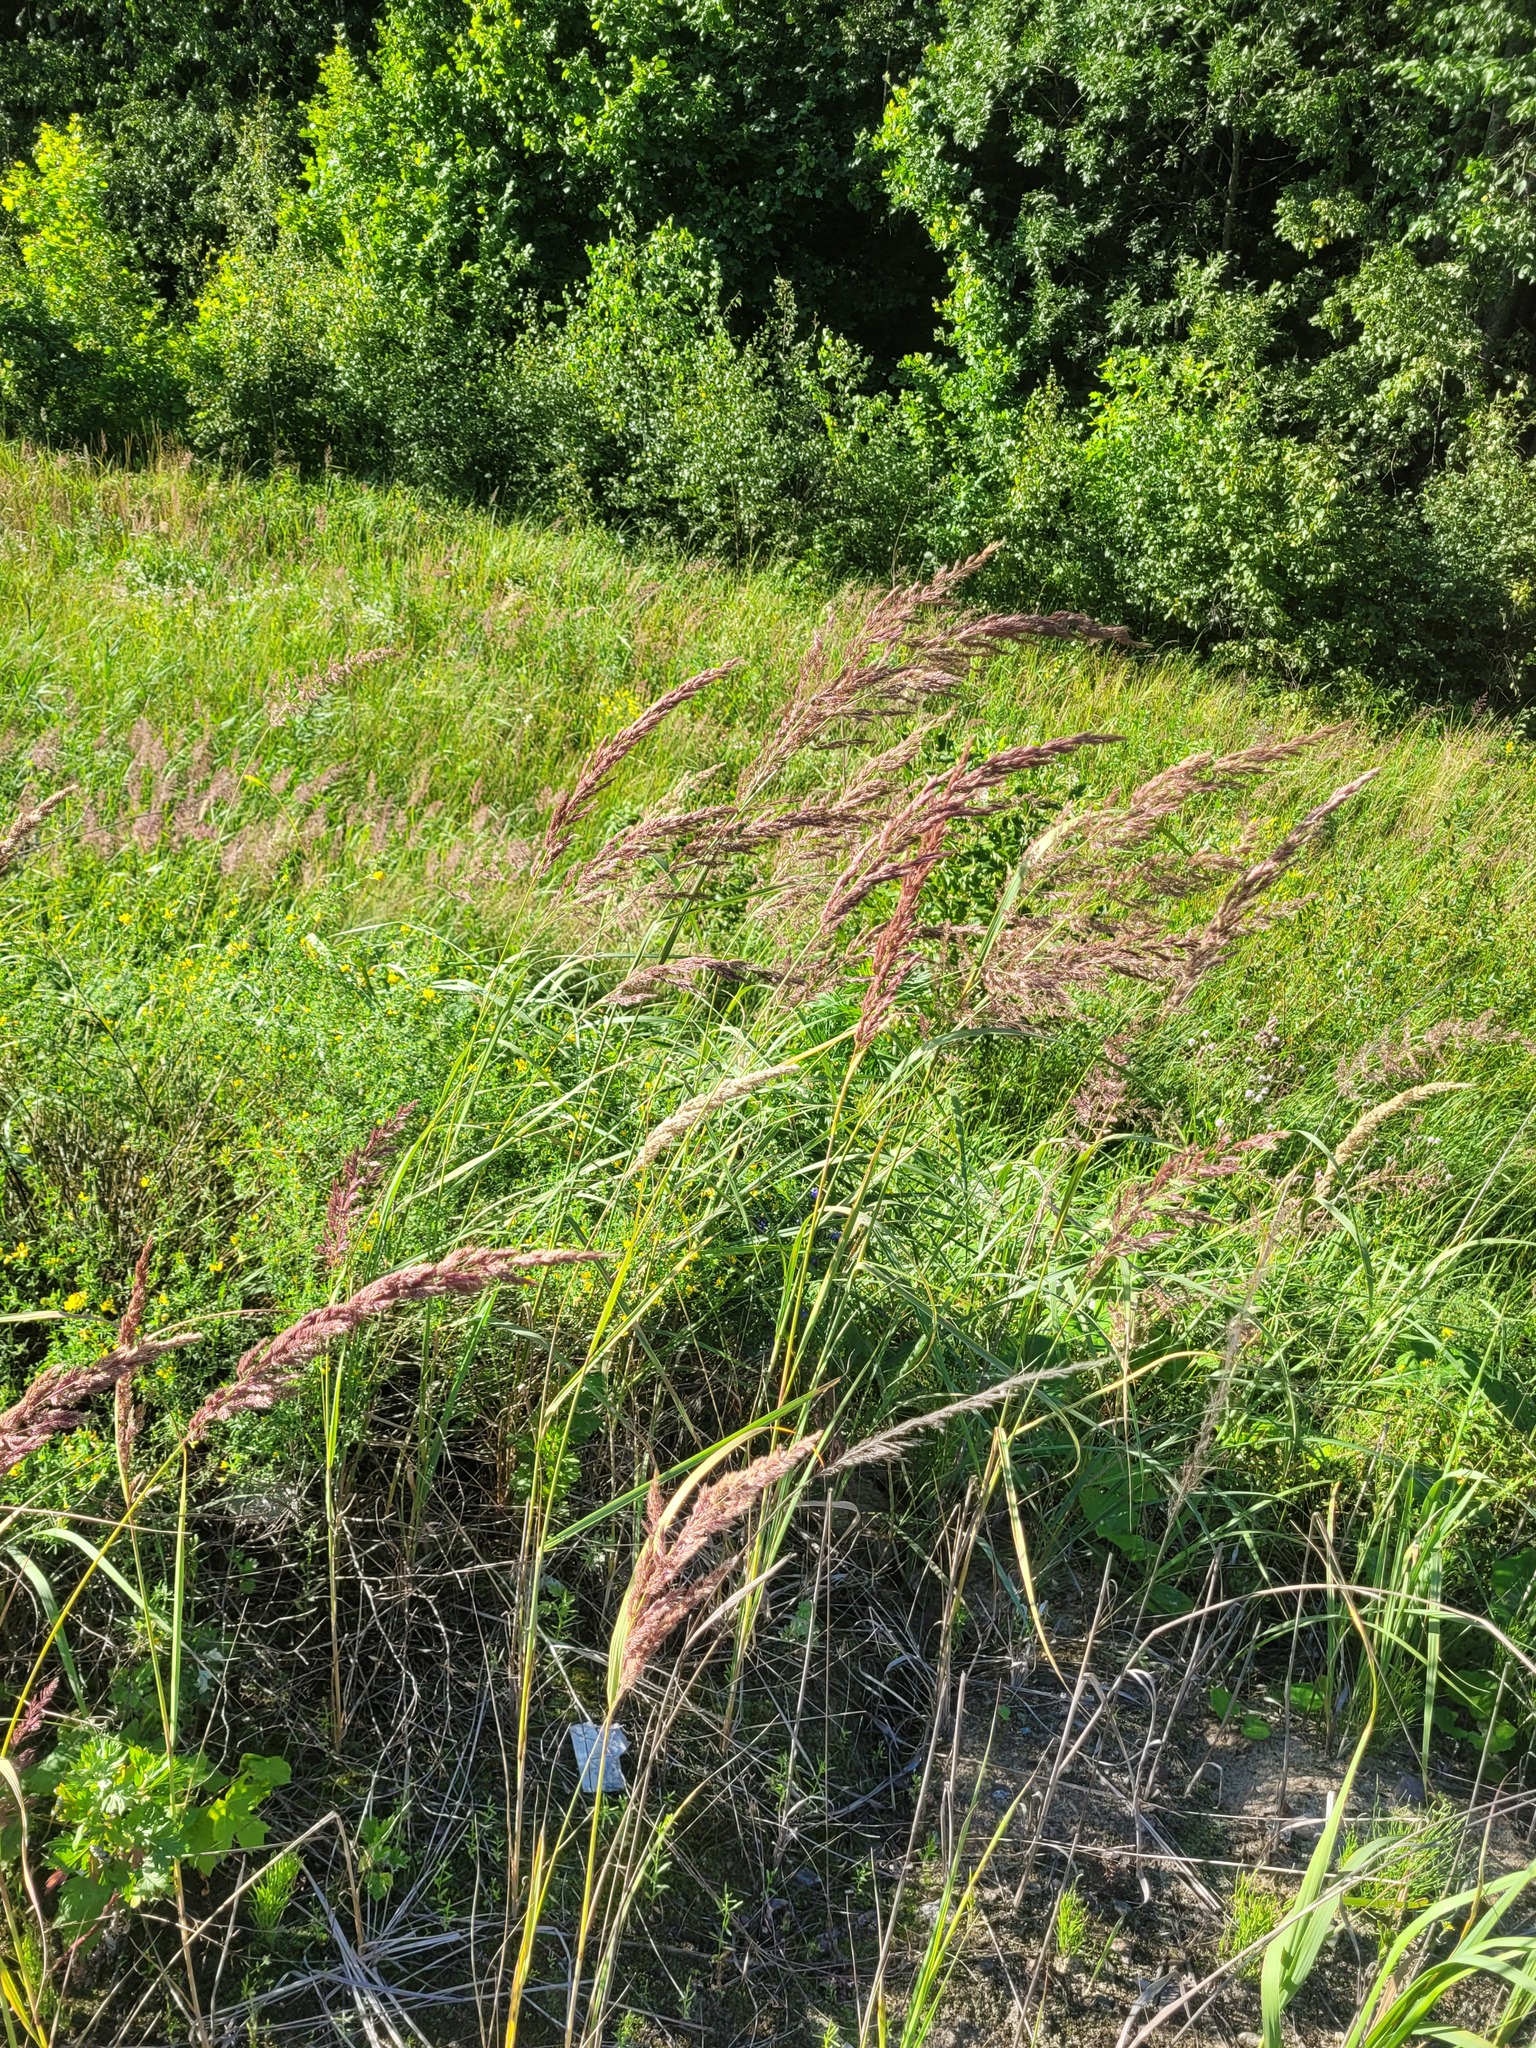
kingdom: Plantae
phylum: Tracheophyta
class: Liliopsida
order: Poales
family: Poaceae
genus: Calamagrostis
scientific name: Calamagrostis epigejos
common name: Wood small-reed
